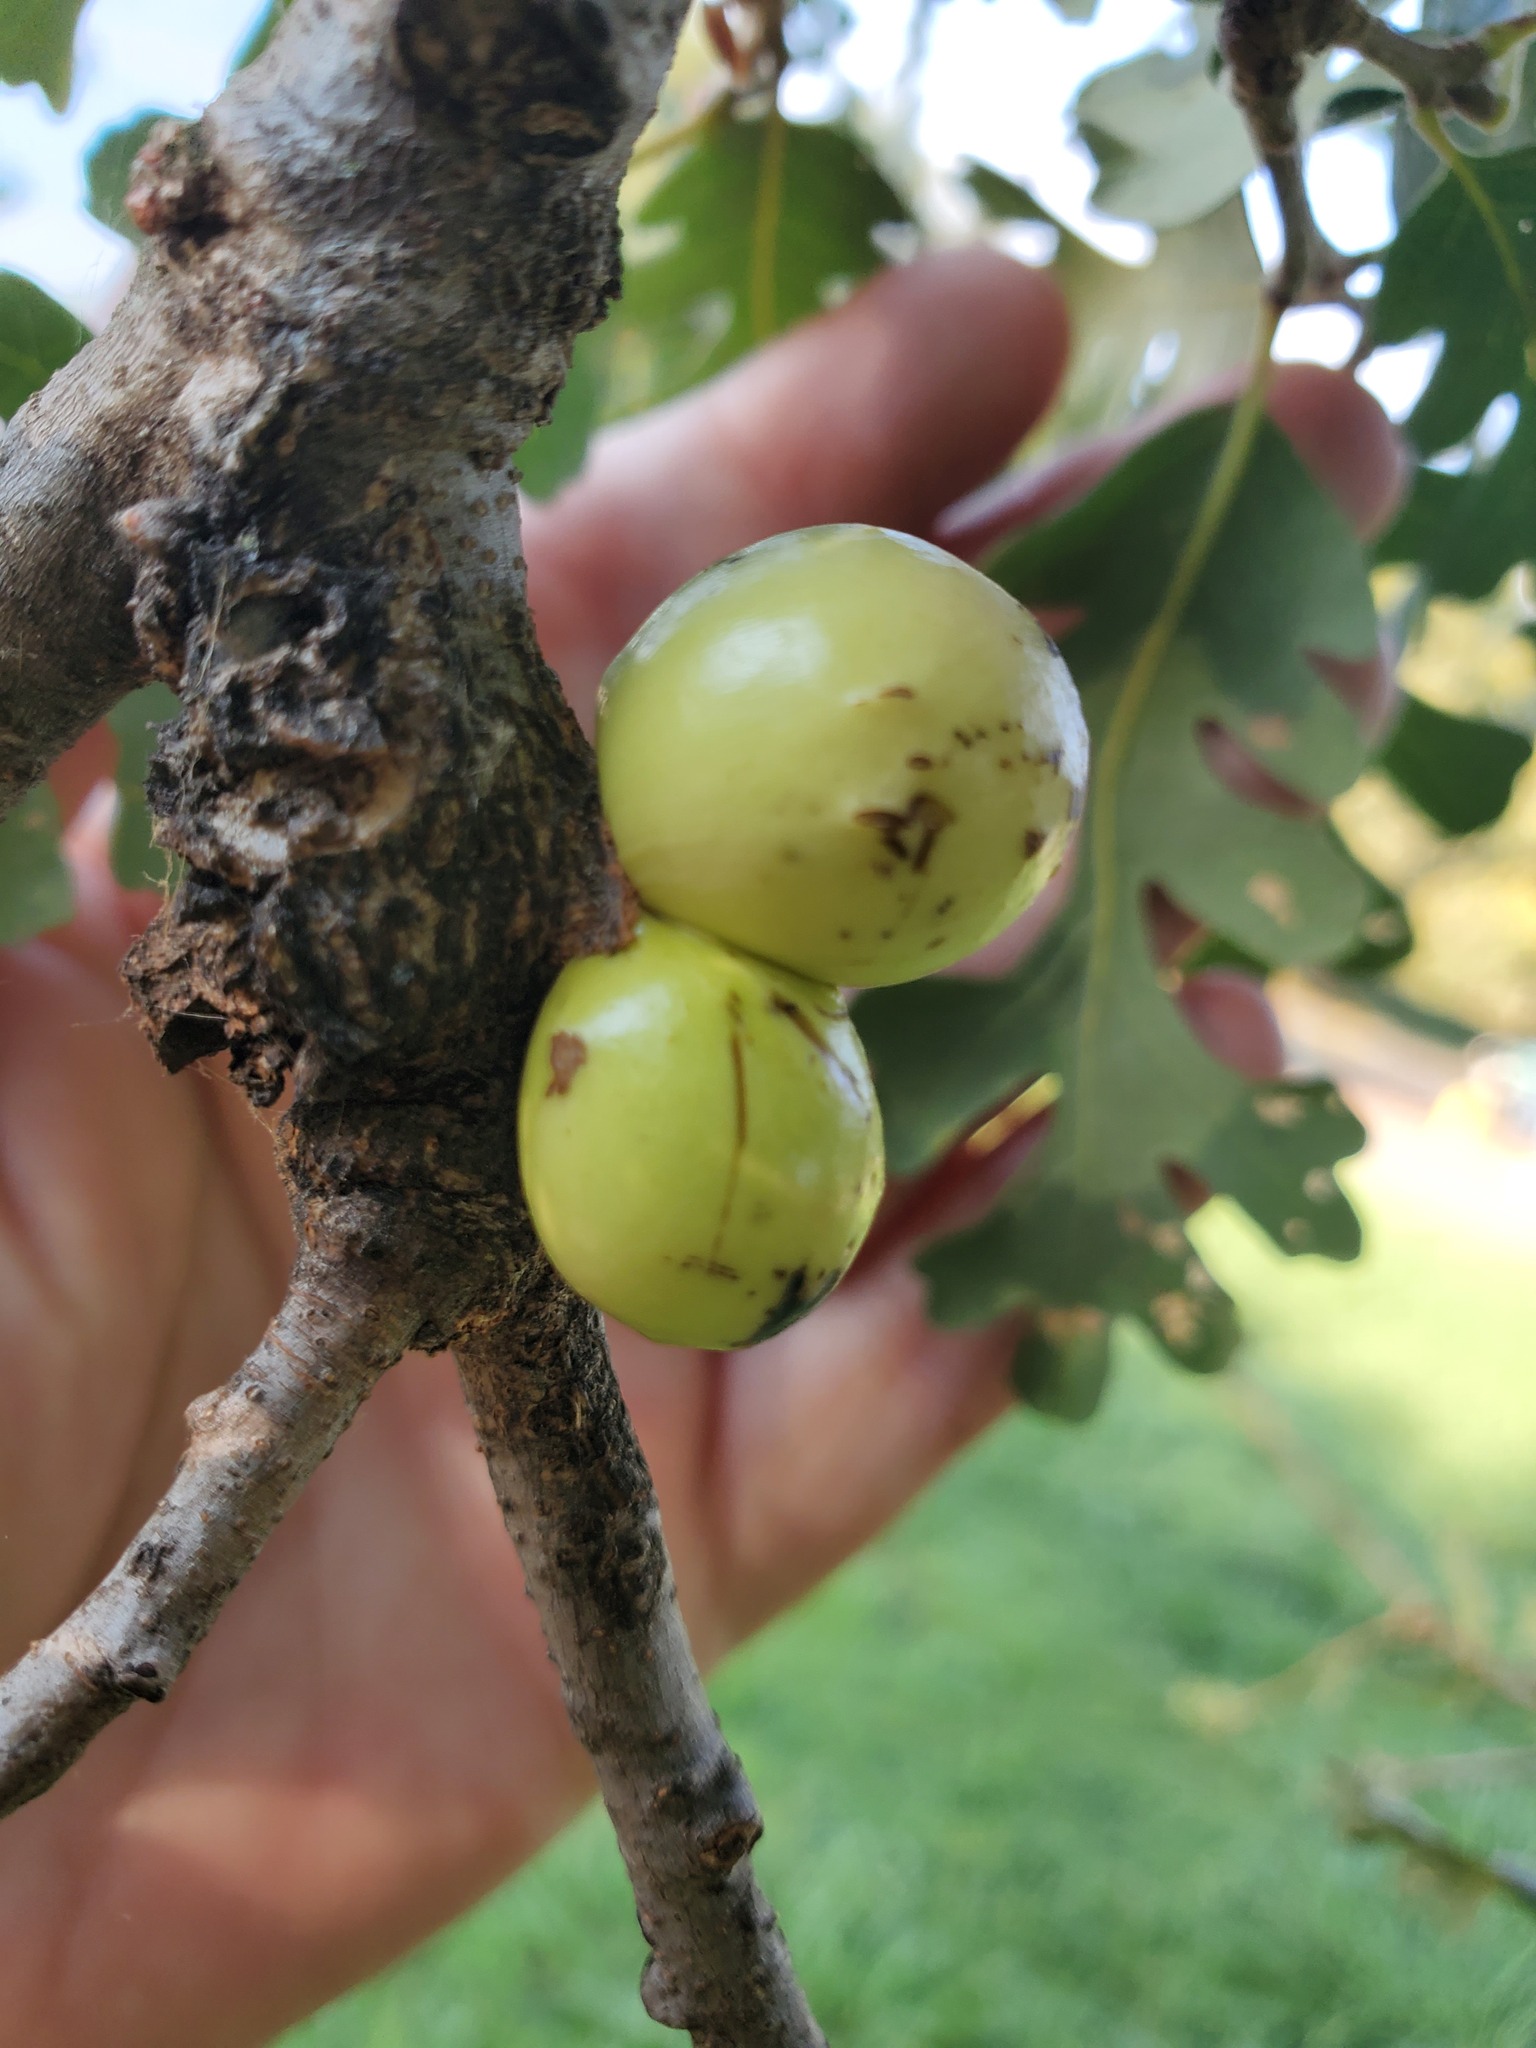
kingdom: Animalia
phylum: Arthropoda
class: Insecta
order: Hymenoptera
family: Cynipidae
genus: Andricus
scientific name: Andricus quercuscalifornicus
